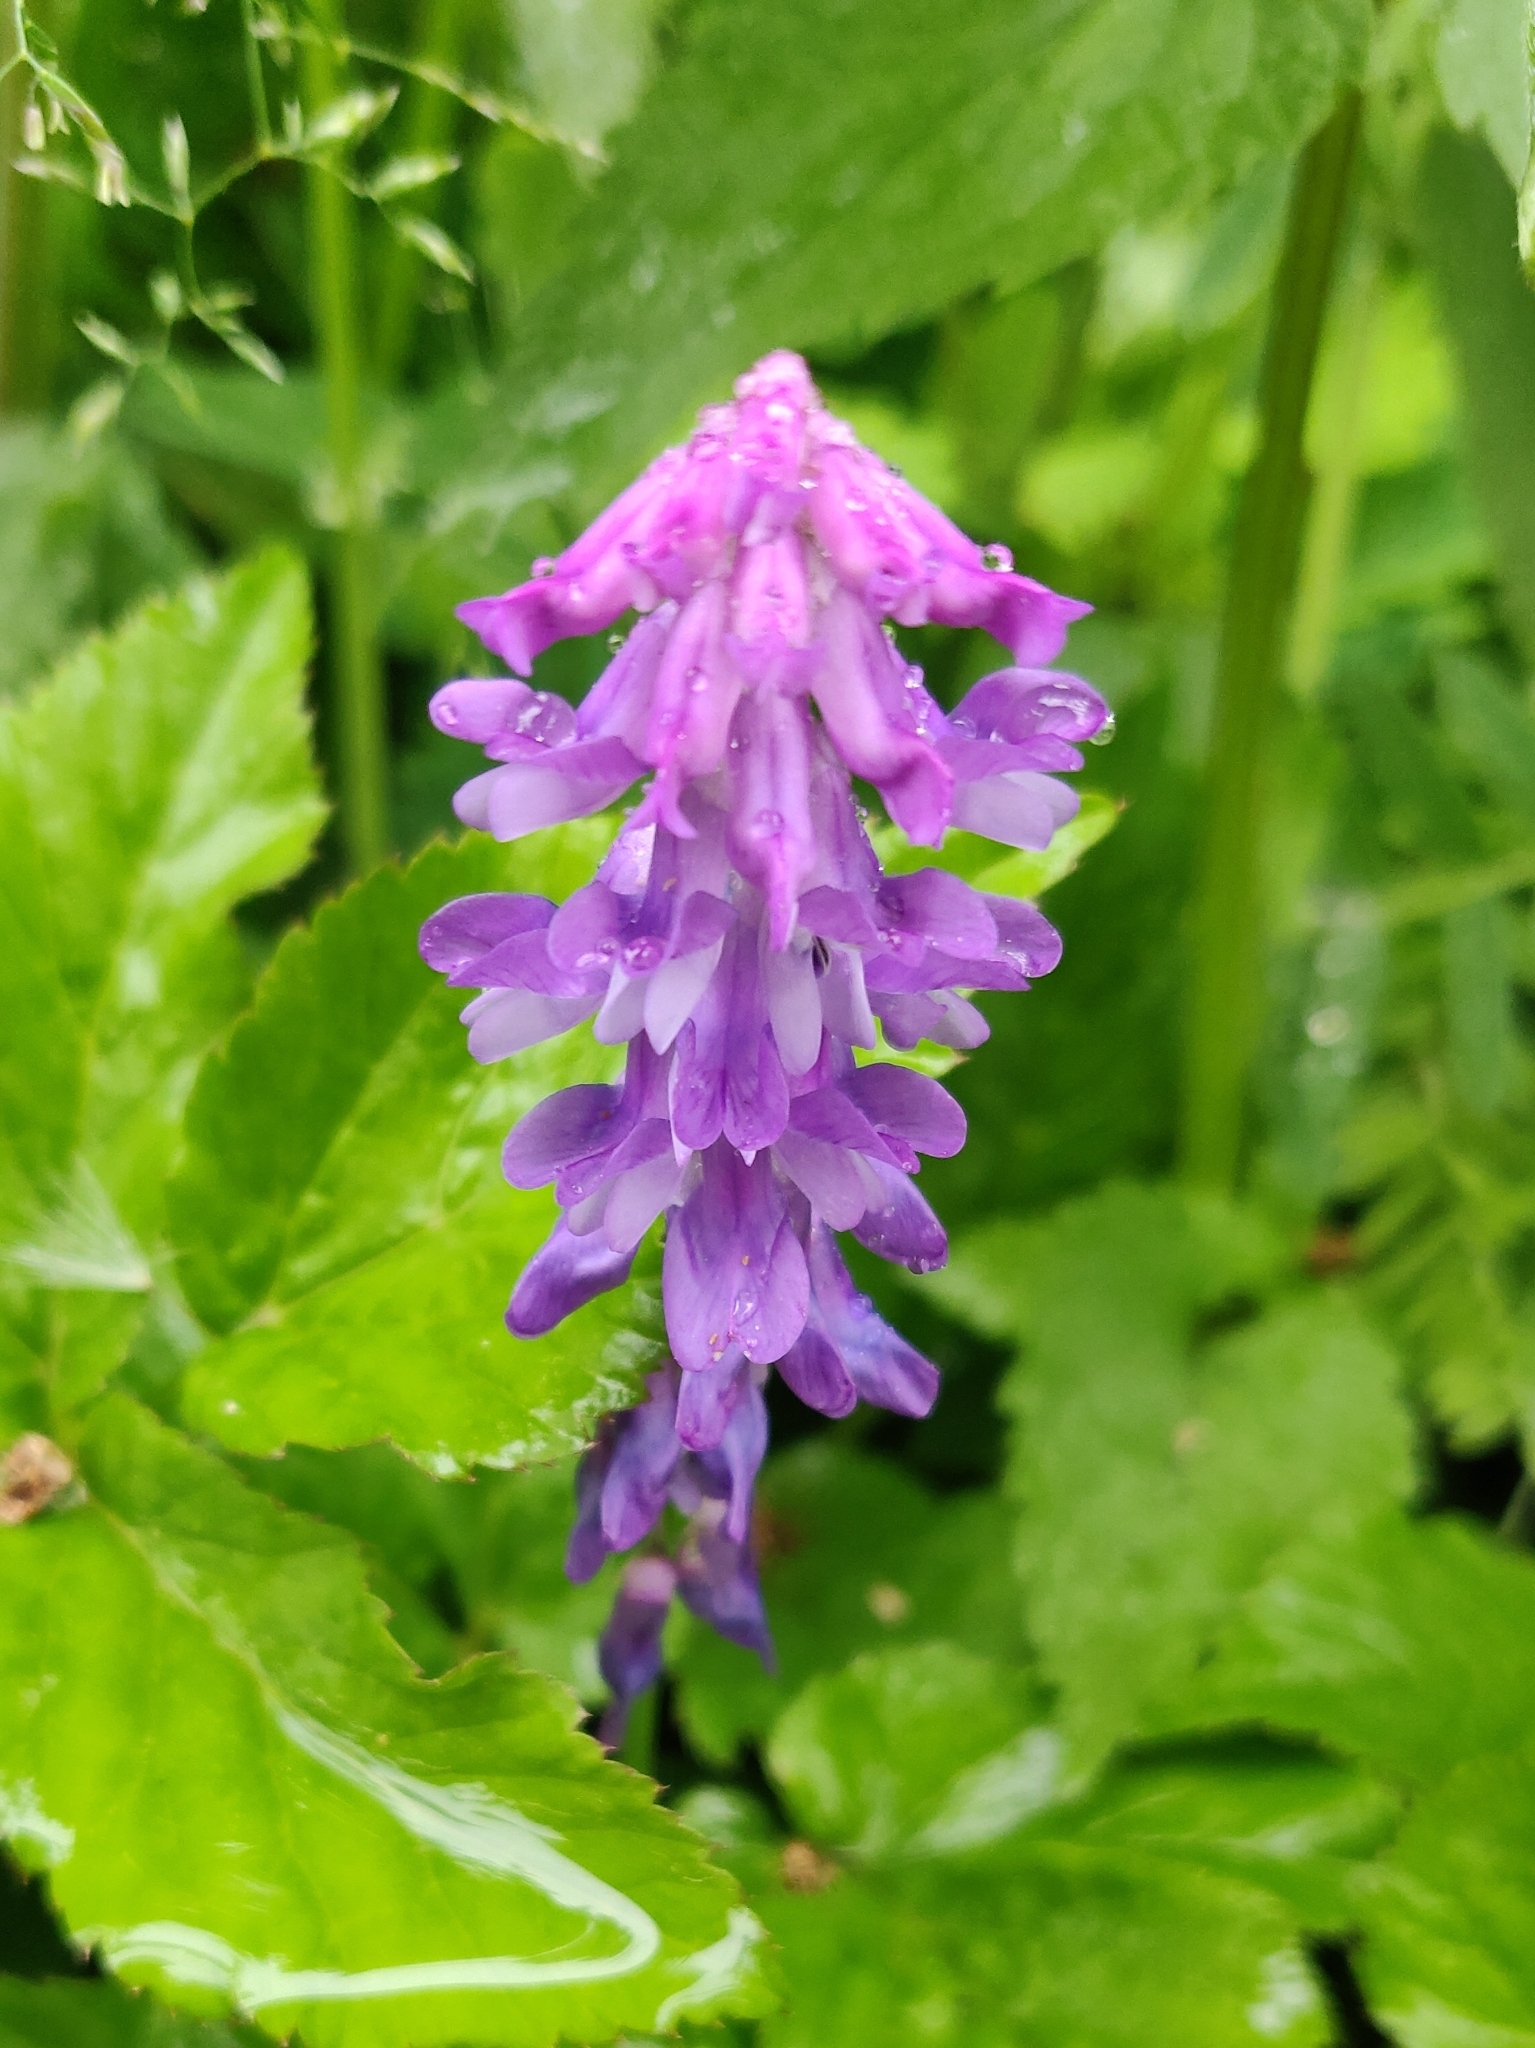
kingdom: Plantae
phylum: Tracheophyta
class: Magnoliopsida
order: Fabales
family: Fabaceae
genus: Vicia
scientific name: Vicia cracca
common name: Bird vetch
